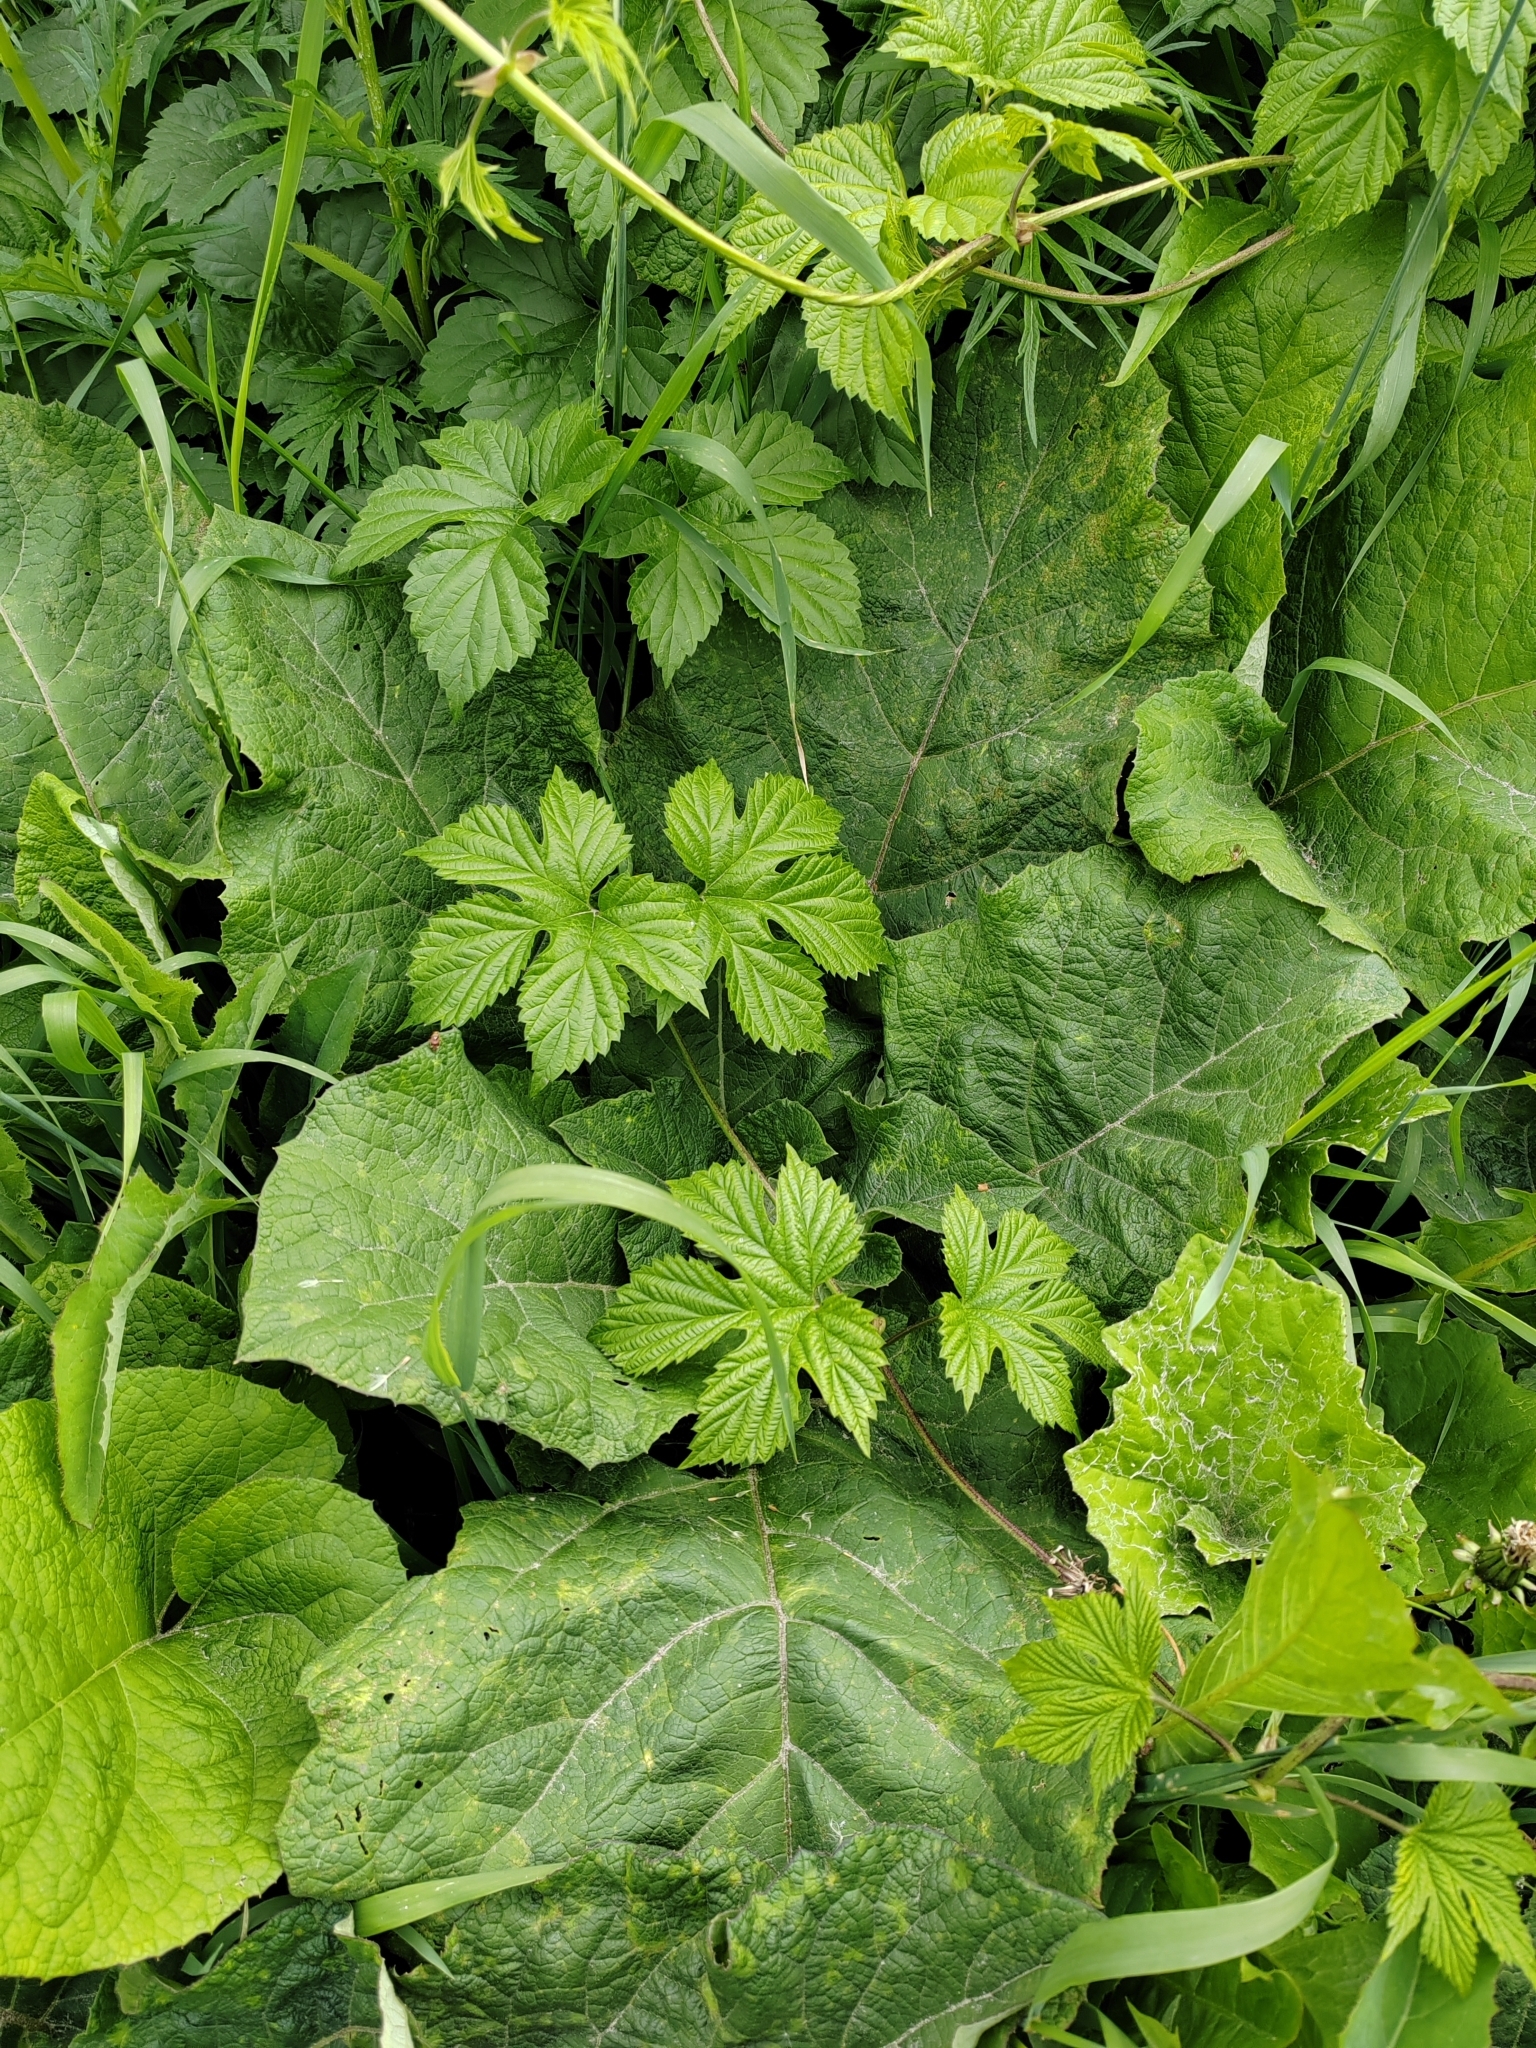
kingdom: Plantae
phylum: Tracheophyta
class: Magnoliopsida
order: Rosales
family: Cannabaceae
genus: Humulus
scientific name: Humulus lupulus
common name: Hop
